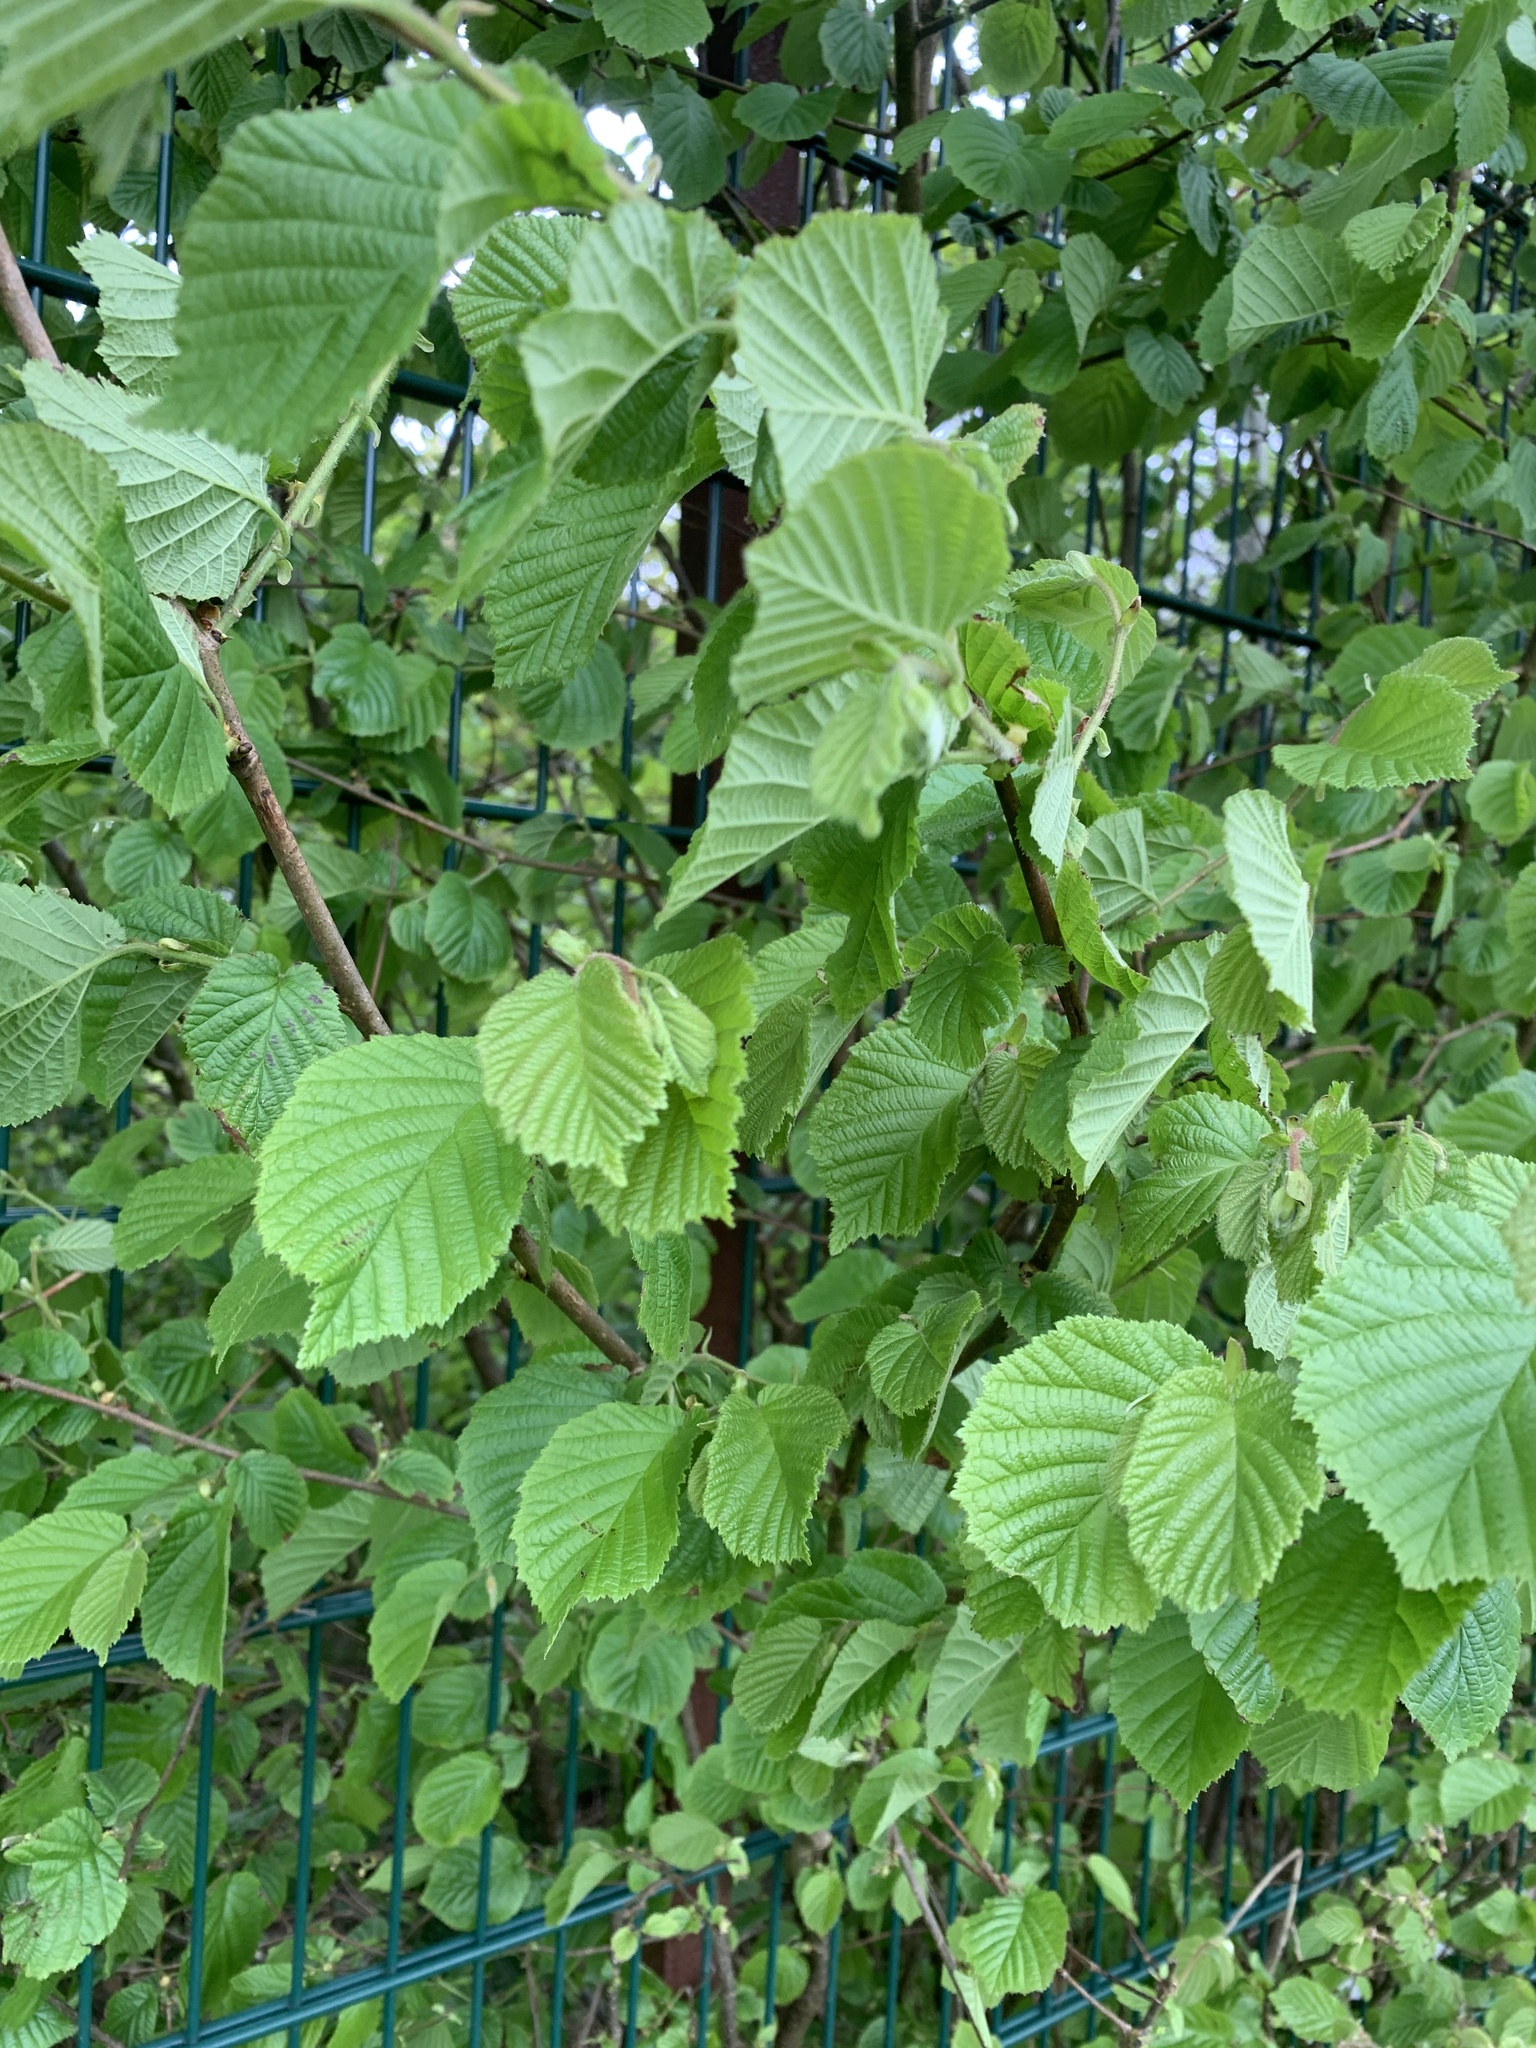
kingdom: Plantae
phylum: Tracheophyta
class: Magnoliopsida
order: Fagales
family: Betulaceae
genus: Corylus
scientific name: Corylus avellana
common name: European hazel
